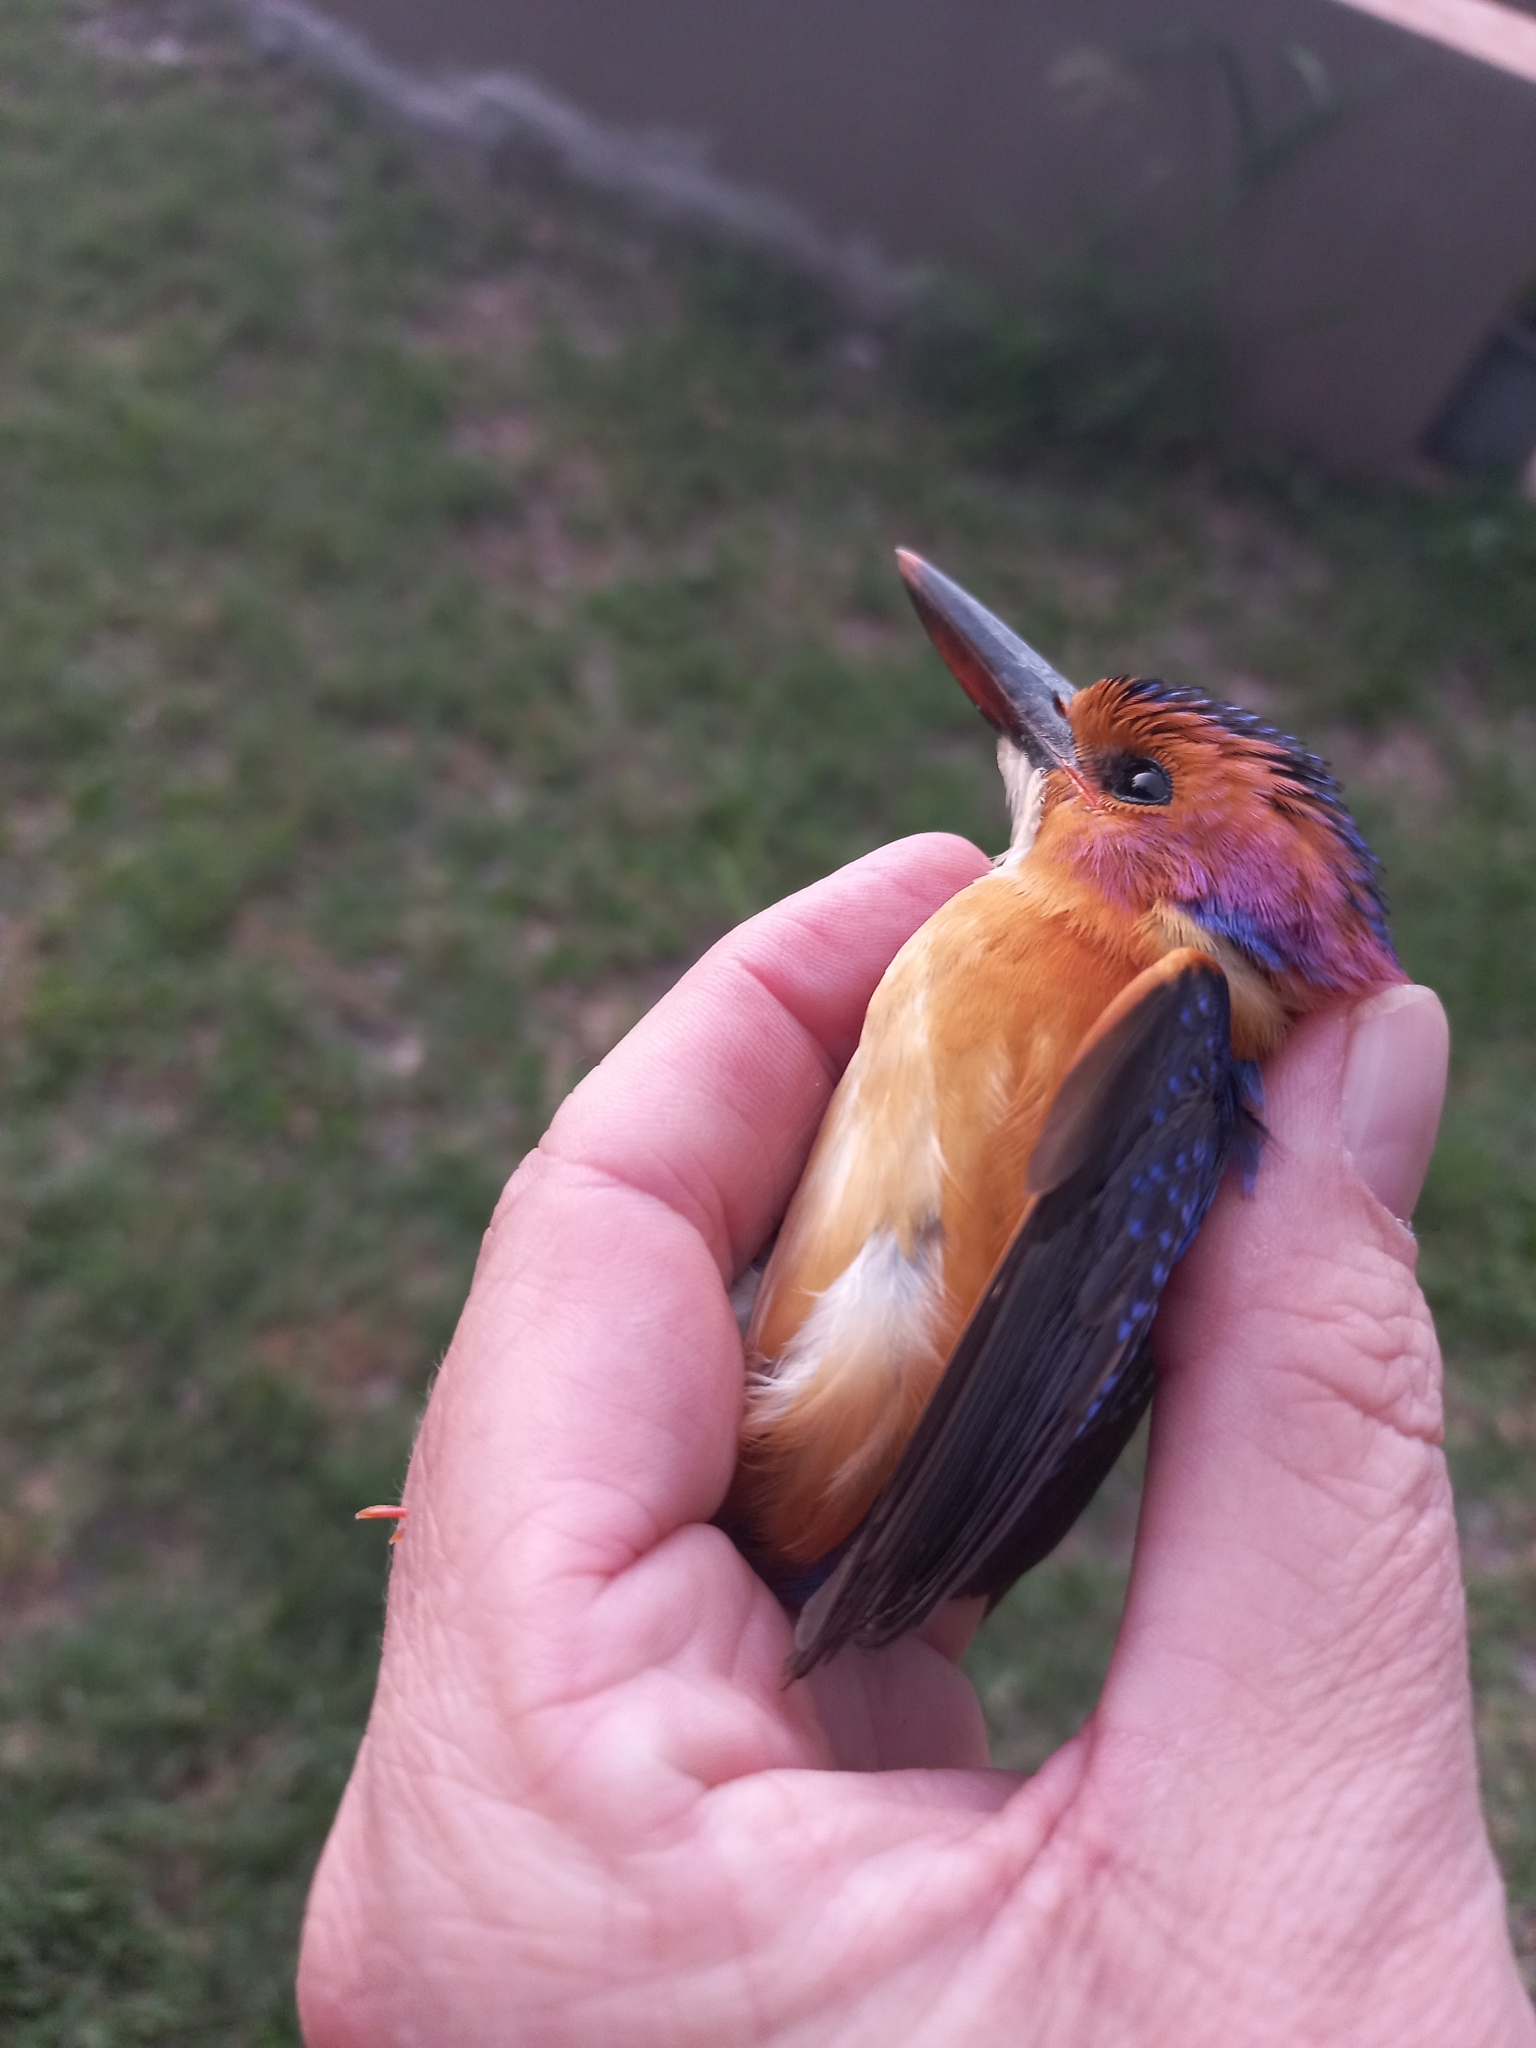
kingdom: Animalia
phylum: Chordata
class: Aves
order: Coraciiformes
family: Alcedinidae
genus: Ispidina
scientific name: Ispidina picta
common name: African pygmy-kingfisher
